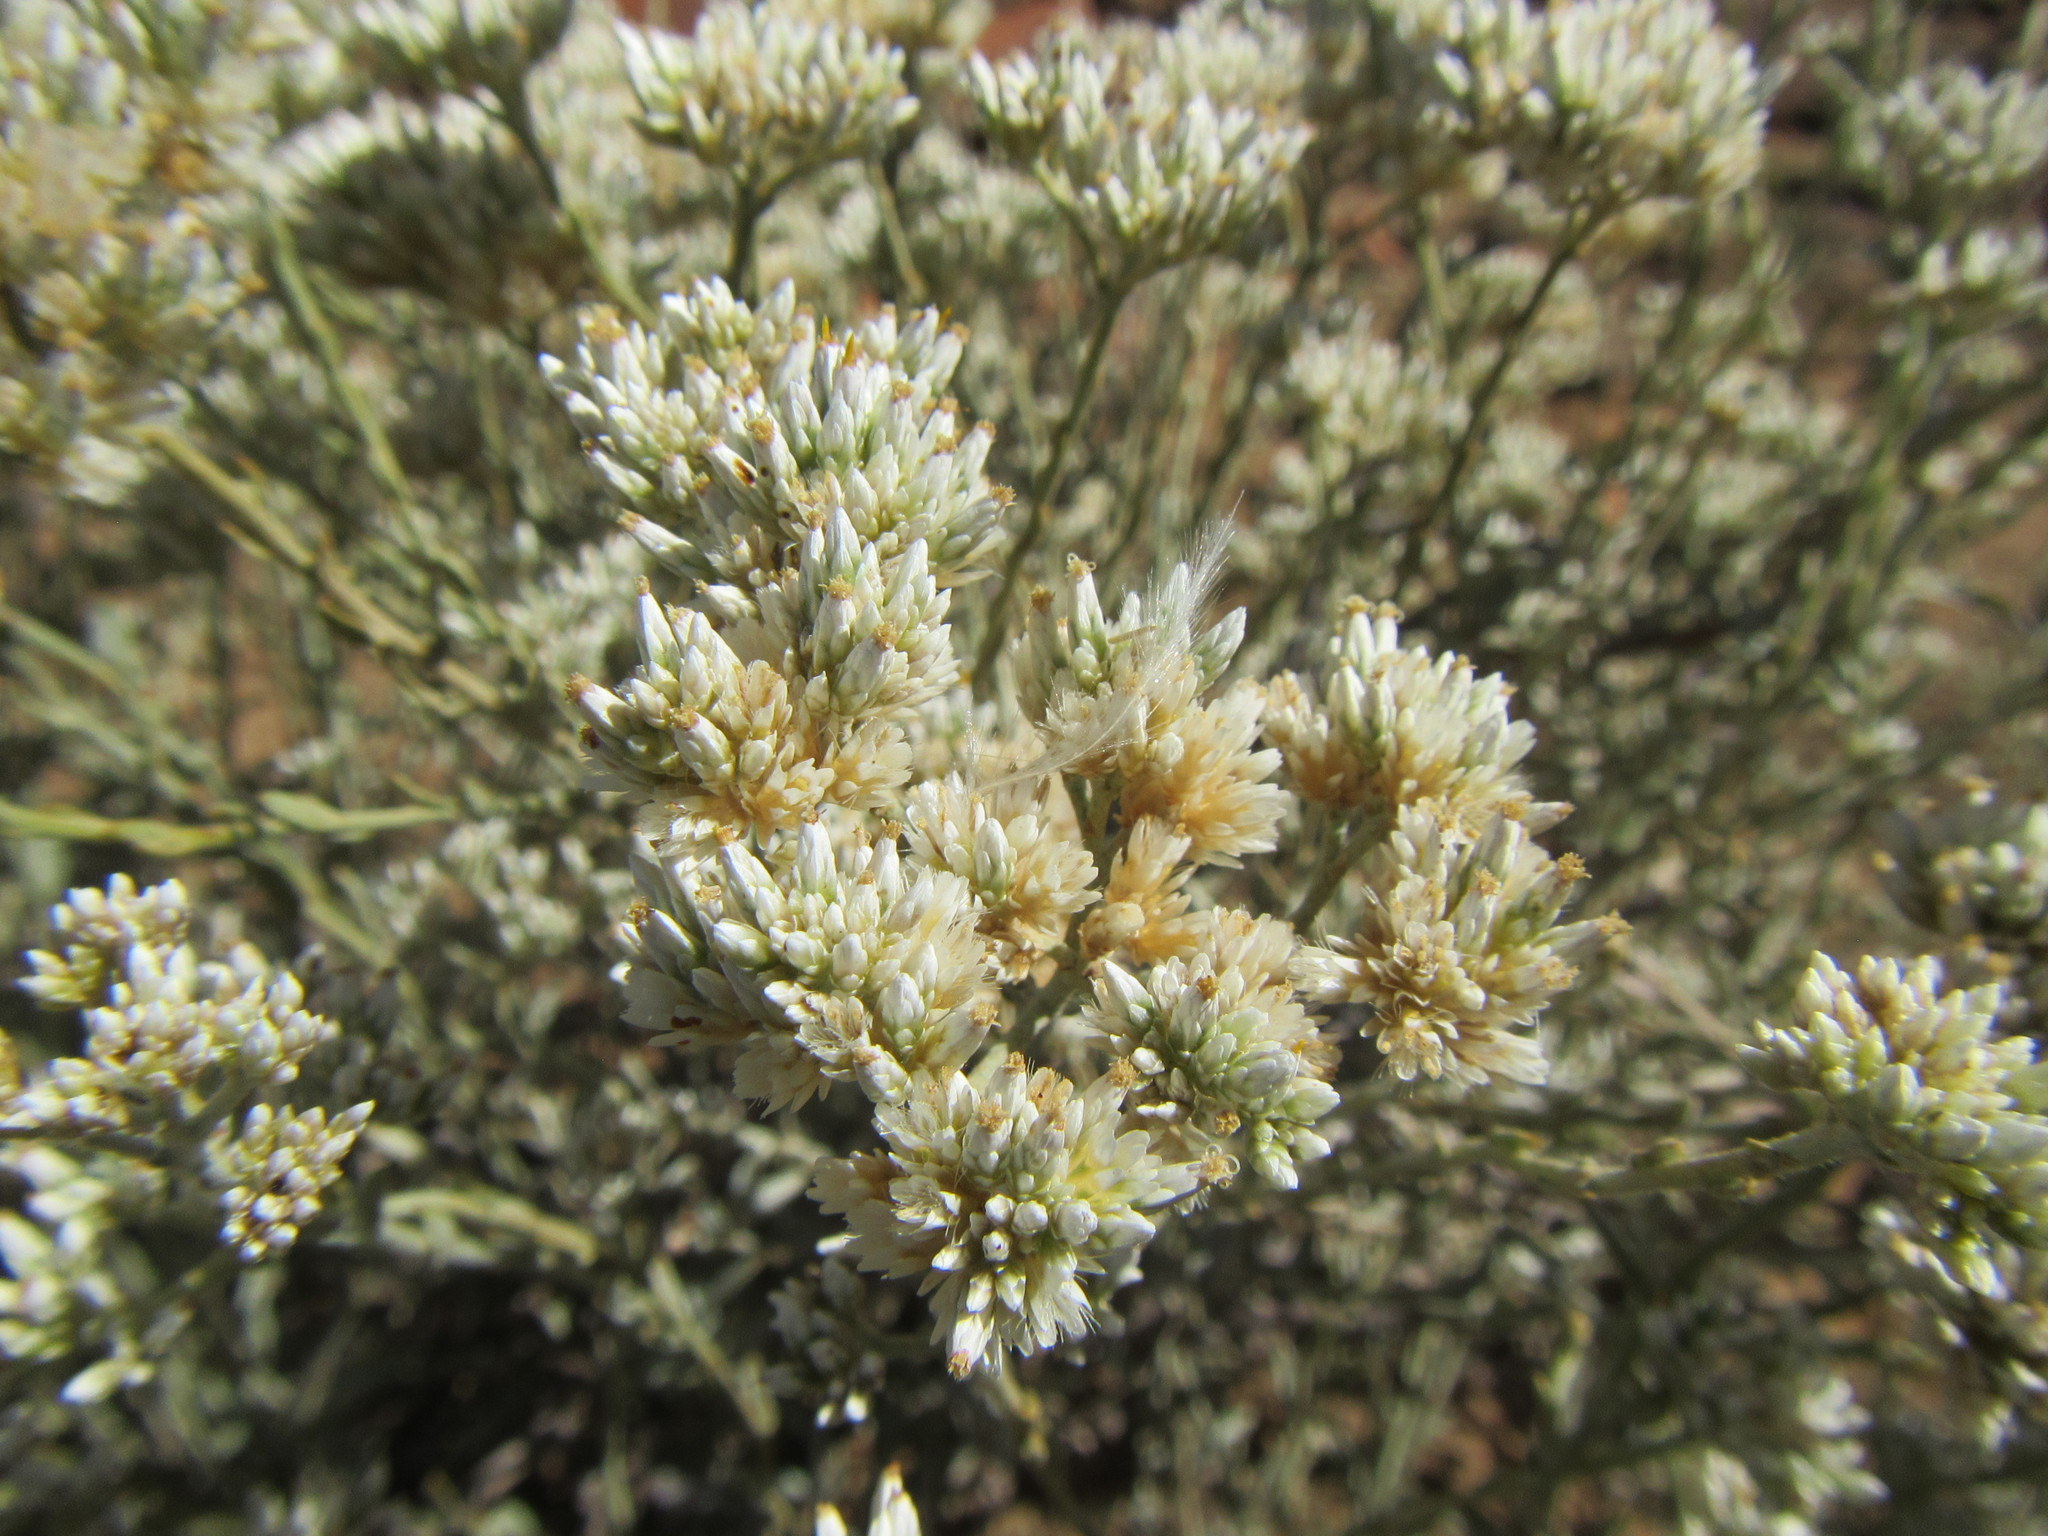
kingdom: Plantae
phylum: Tracheophyta
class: Magnoliopsida
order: Asterales
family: Asteraceae
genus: Helichrysum
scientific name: Helichrysum zeyheri
